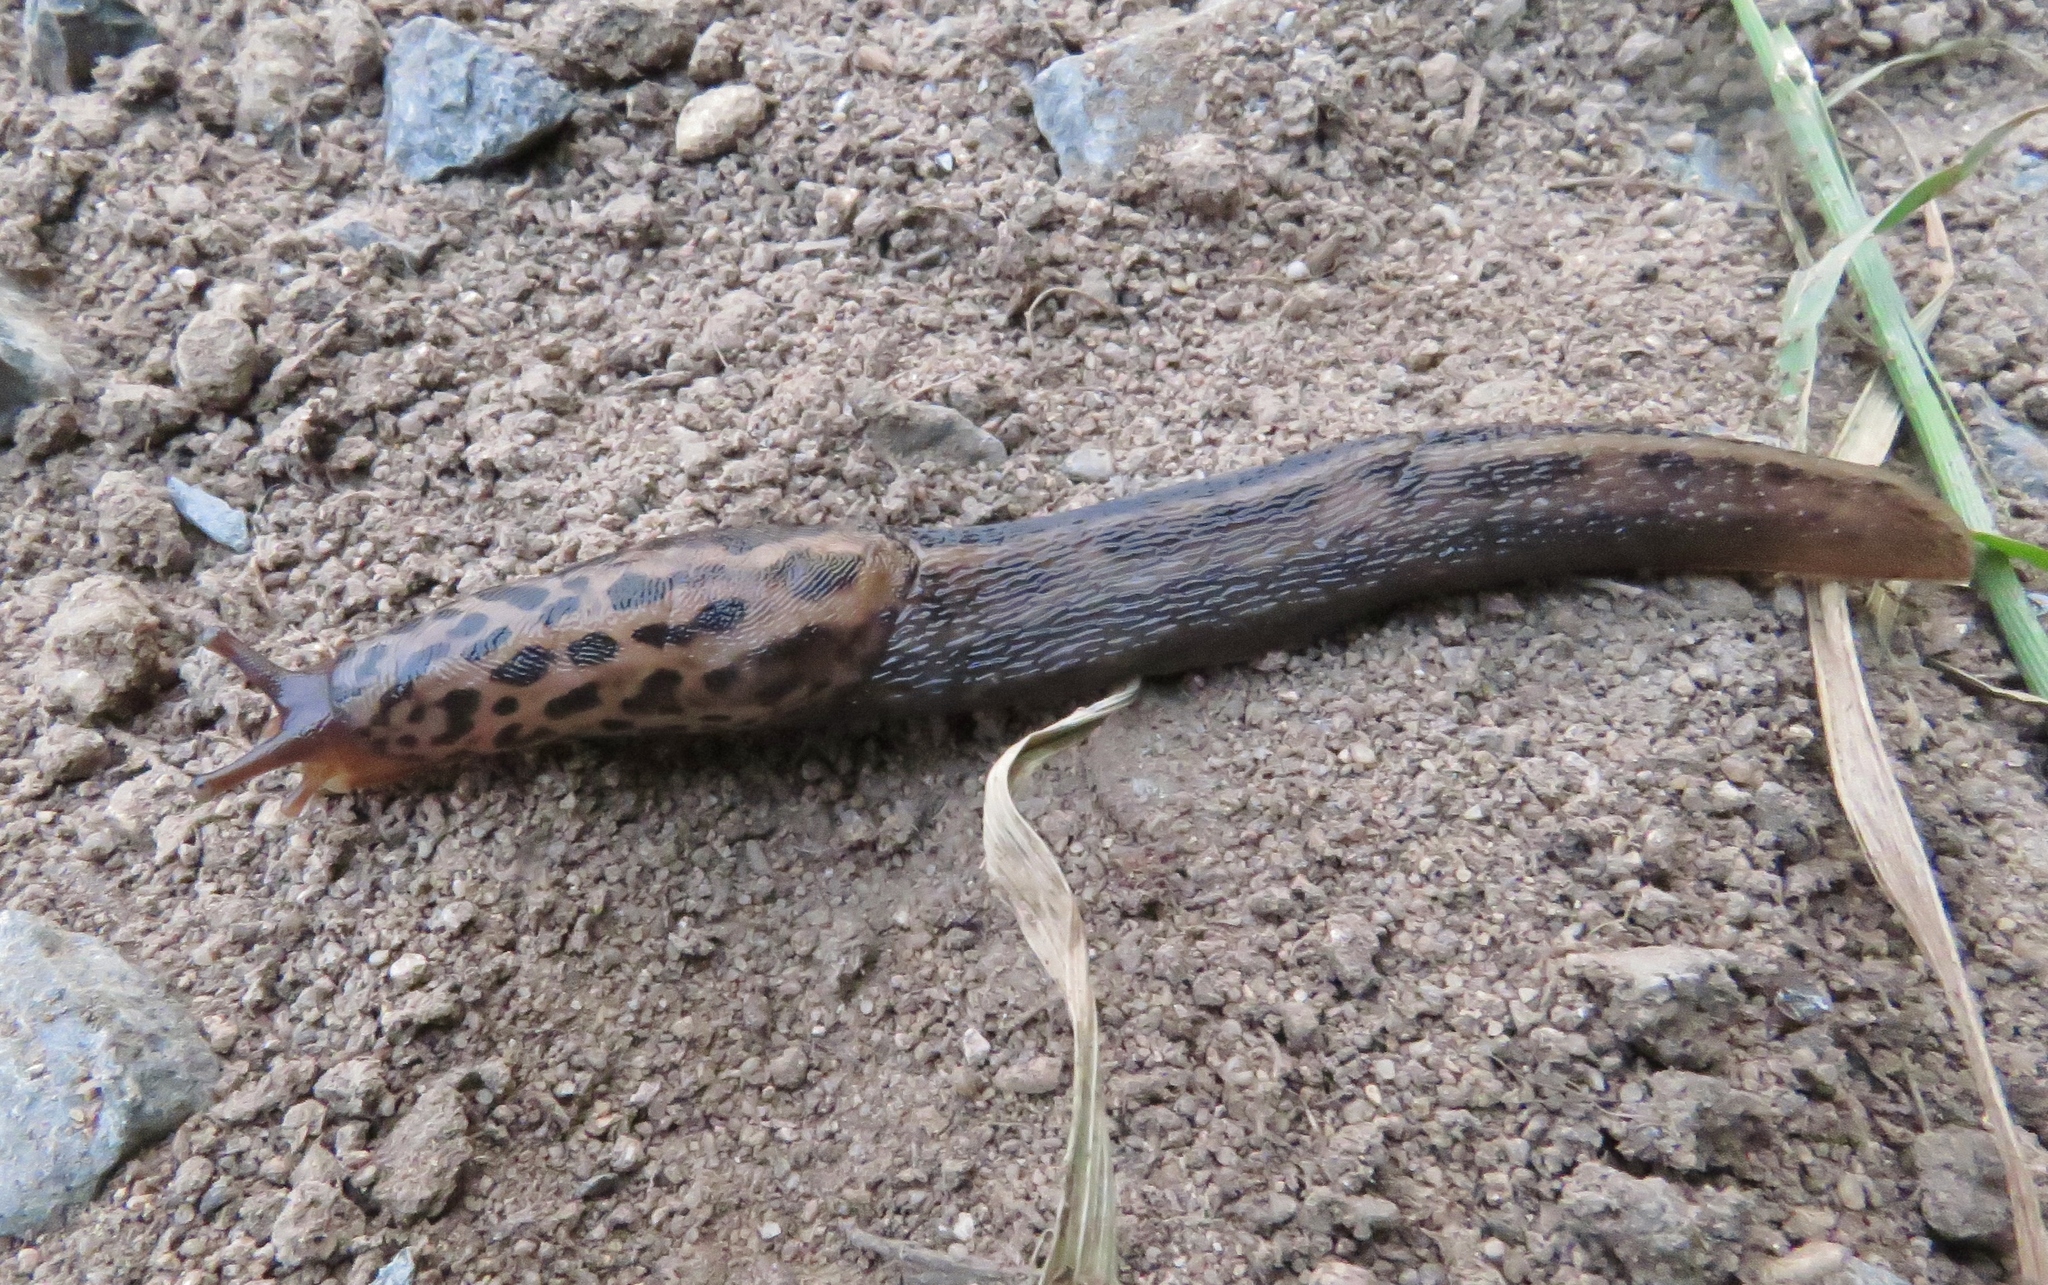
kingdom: Animalia
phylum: Mollusca
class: Gastropoda
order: Stylommatophora
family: Limacidae
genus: Limax
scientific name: Limax maximus
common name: Great grey slug
